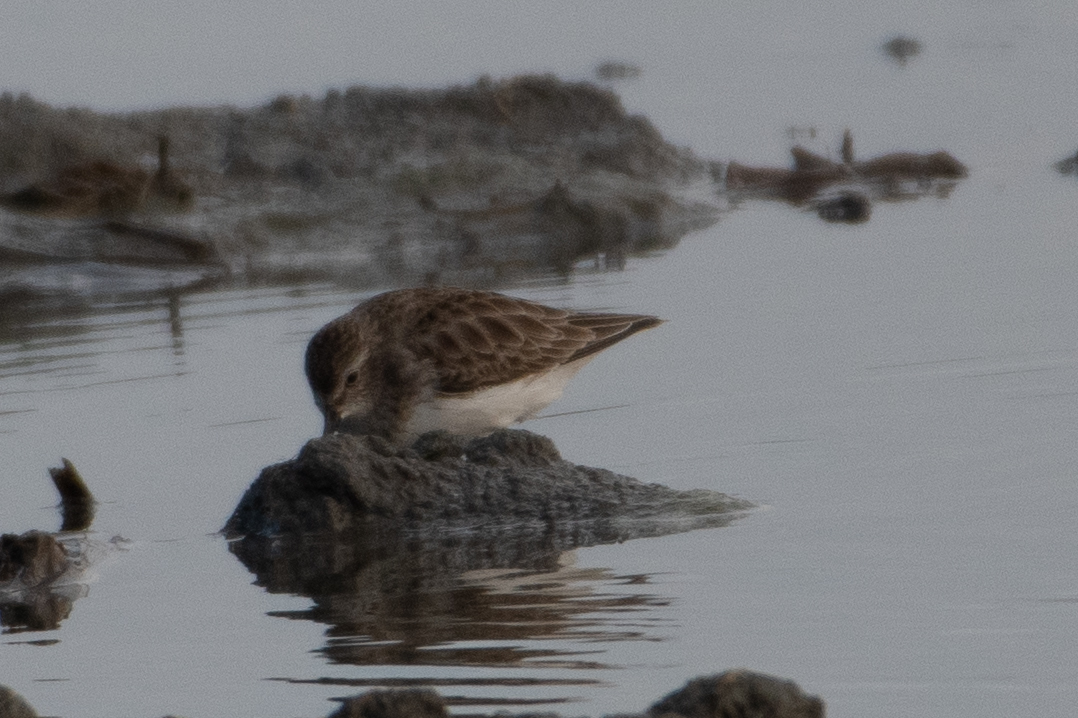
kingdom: Animalia
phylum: Chordata
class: Aves
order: Charadriiformes
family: Scolopacidae
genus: Calidris
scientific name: Calidris minutilla
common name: Least sandpiper
